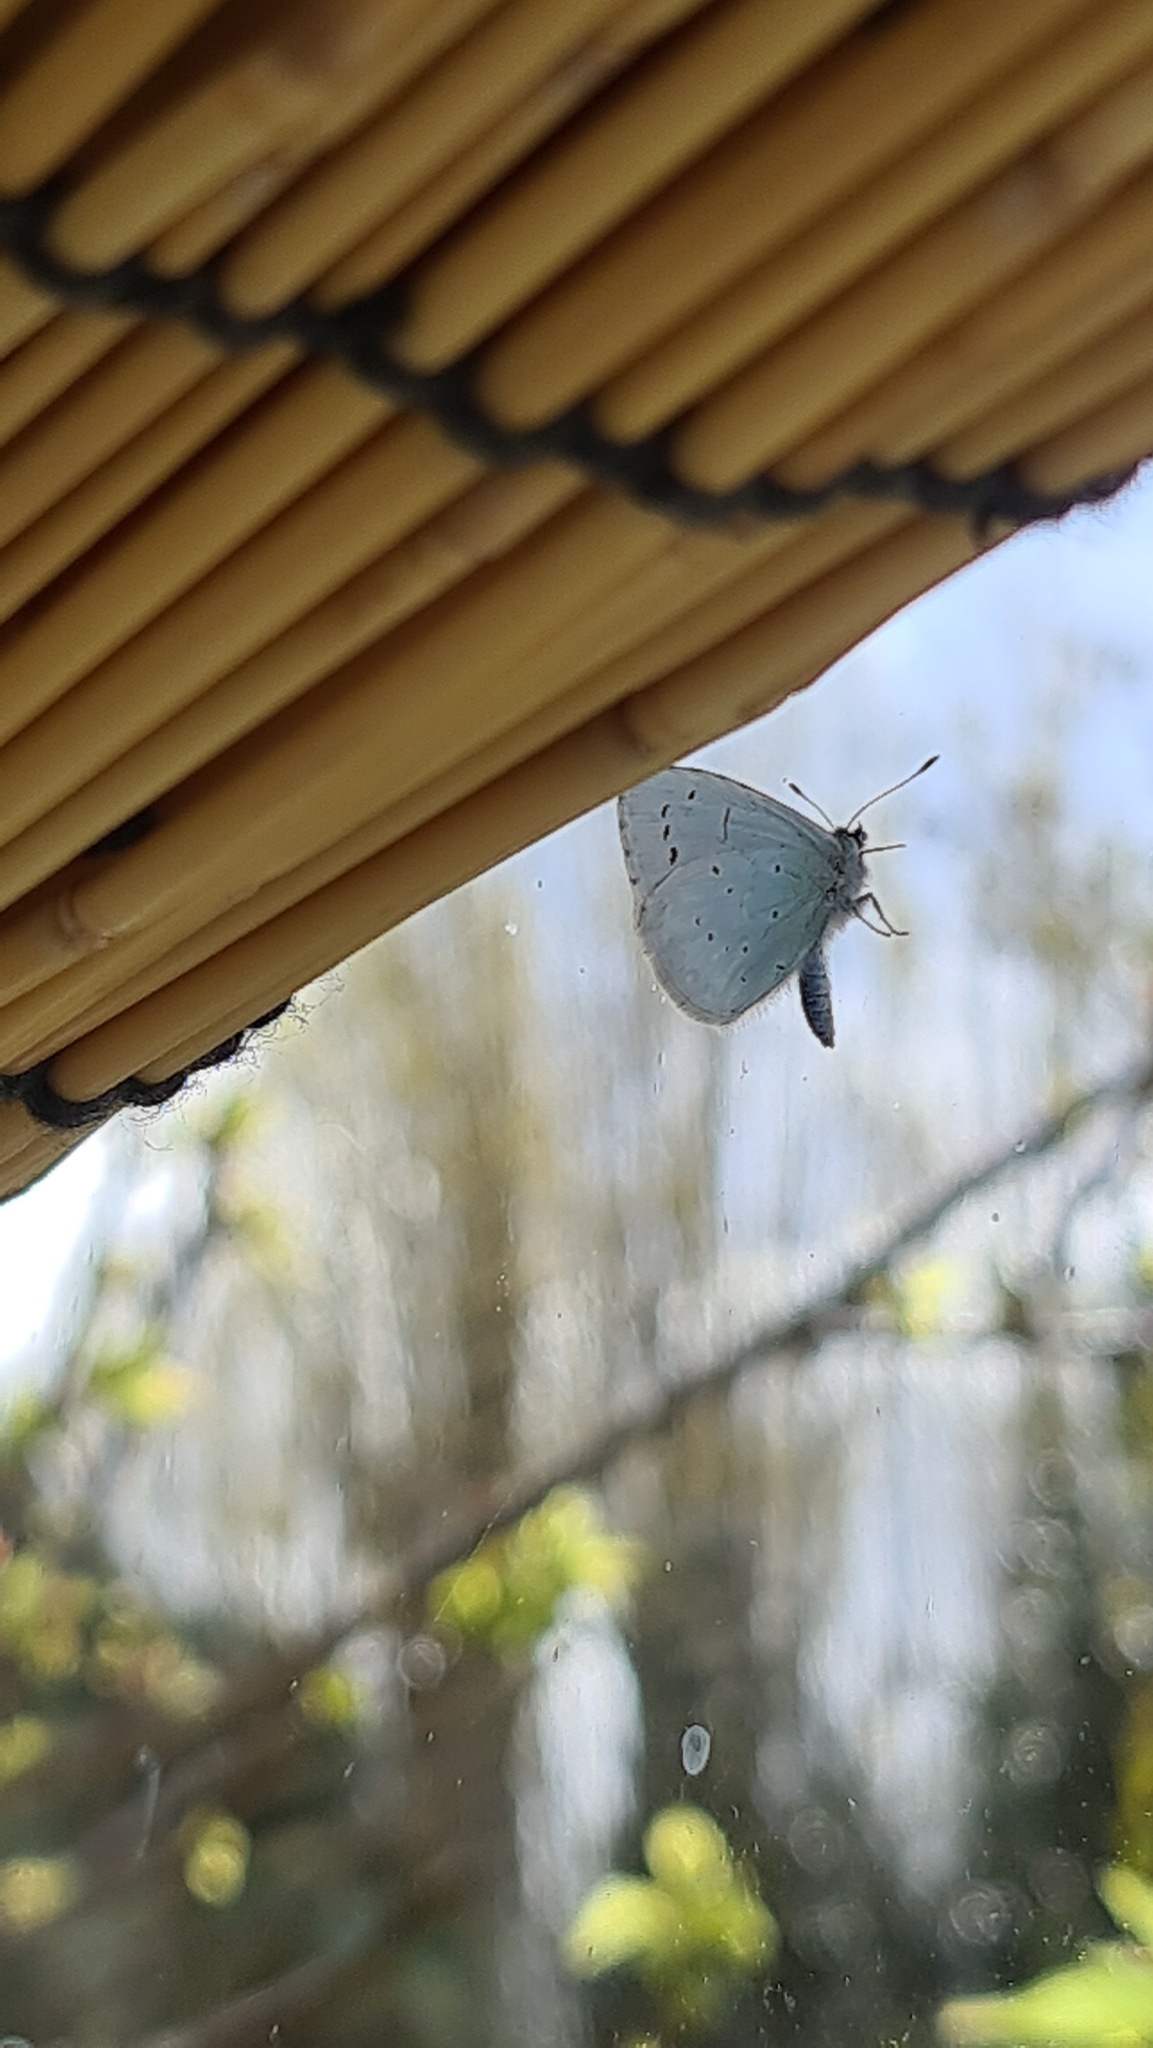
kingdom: Animalia
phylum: Arthropoda
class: Insecta
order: Lepidoptera
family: Lycaenidae
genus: Celastrina
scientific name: Celastrina argiolus
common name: Holly blue
